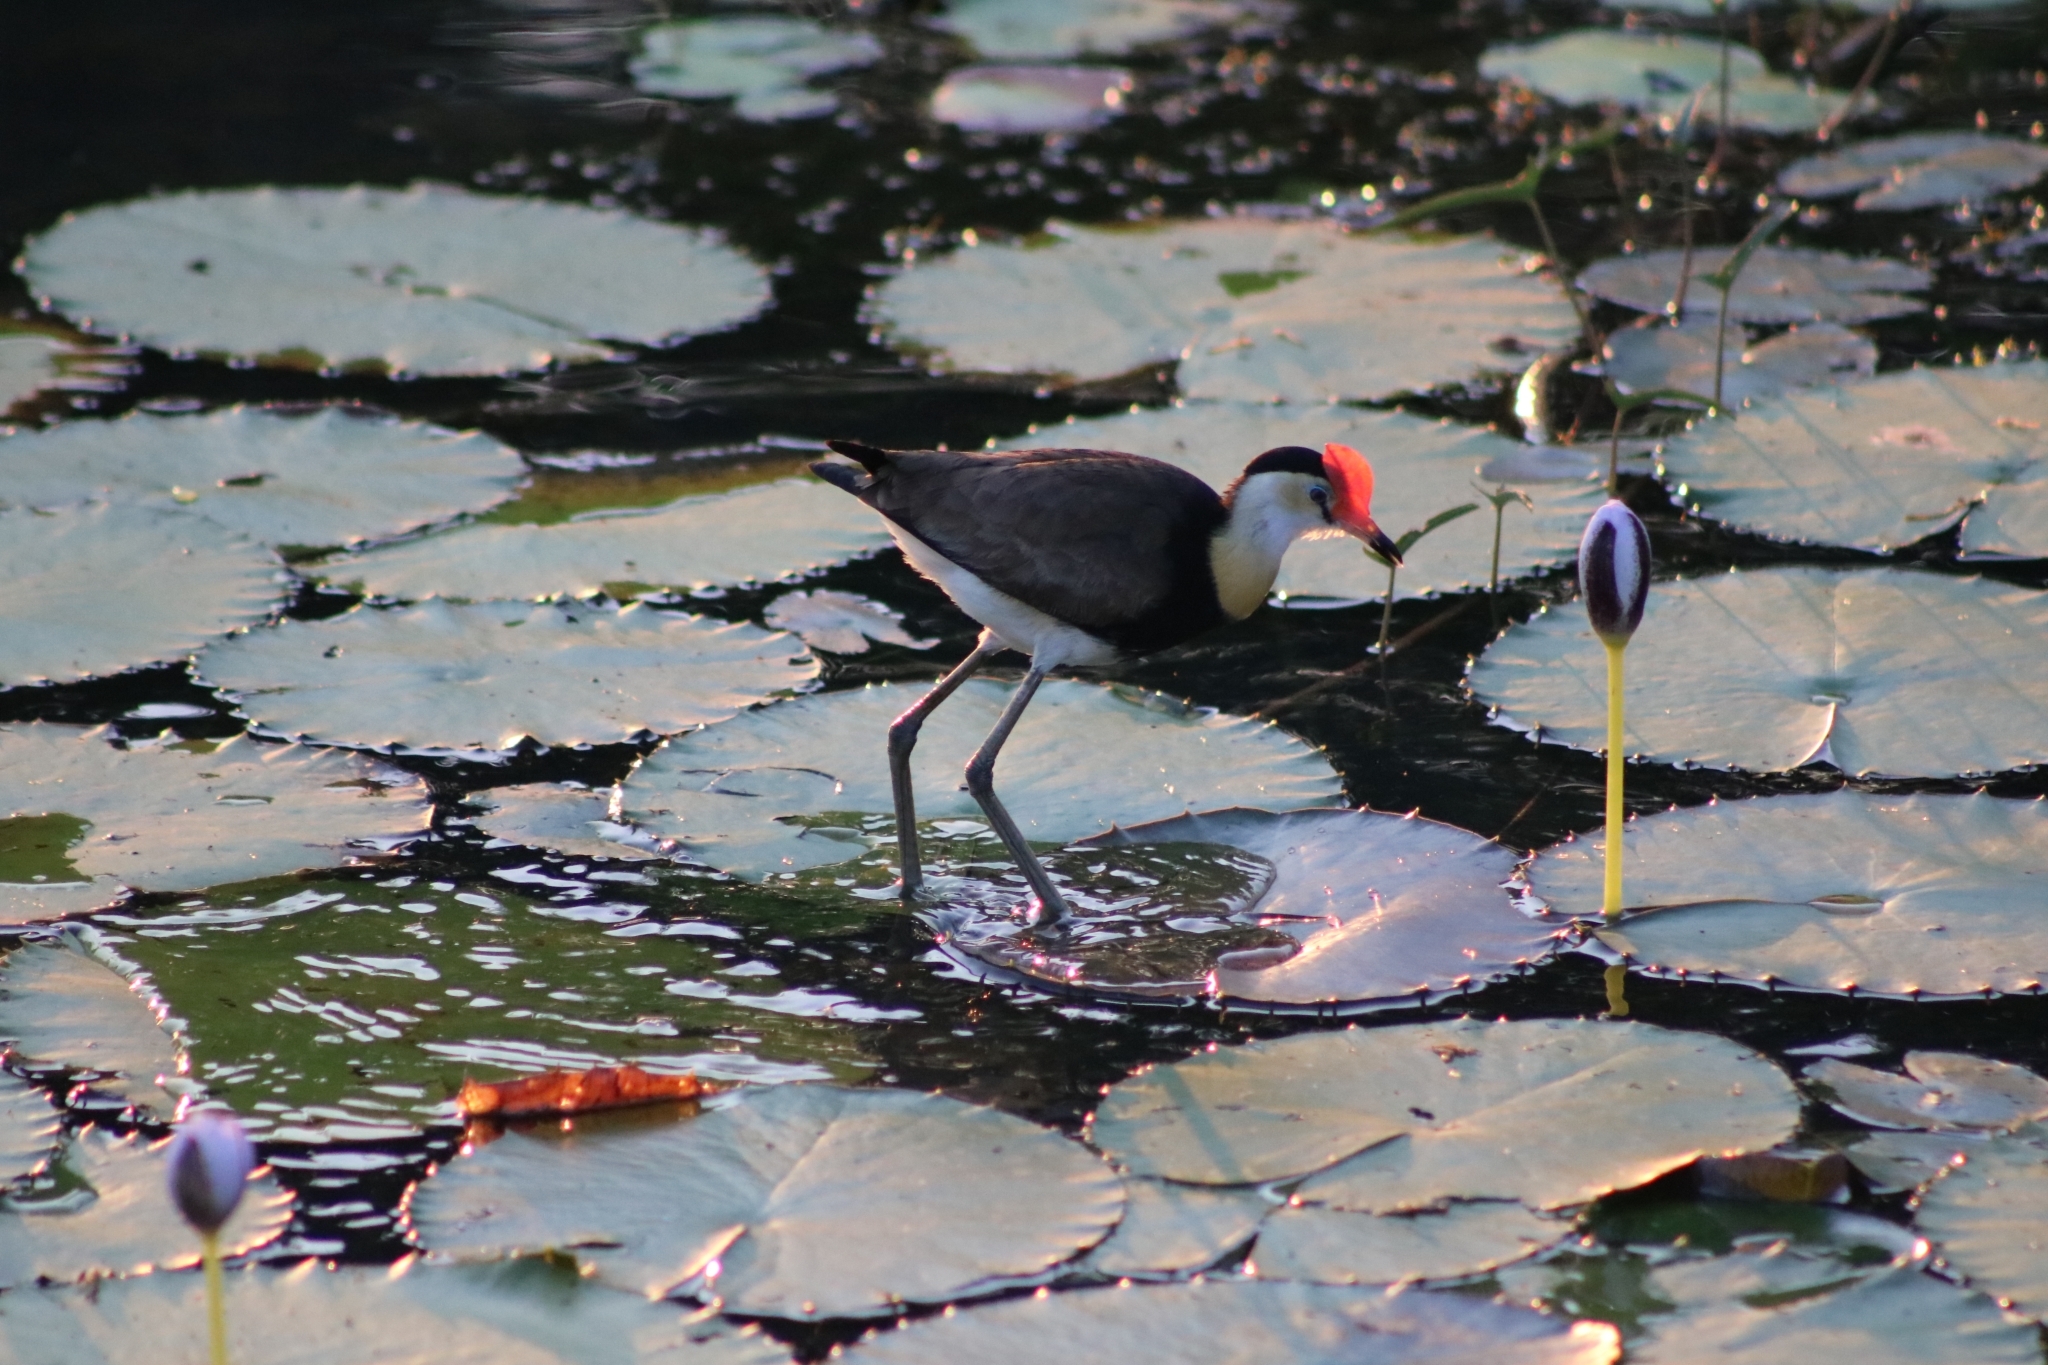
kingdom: Animalia
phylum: Chordata
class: Aves
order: Charadriiformes
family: Jacanidae
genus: Irediparra
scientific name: Irediparra gallinacea
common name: Comb-crested jacana
